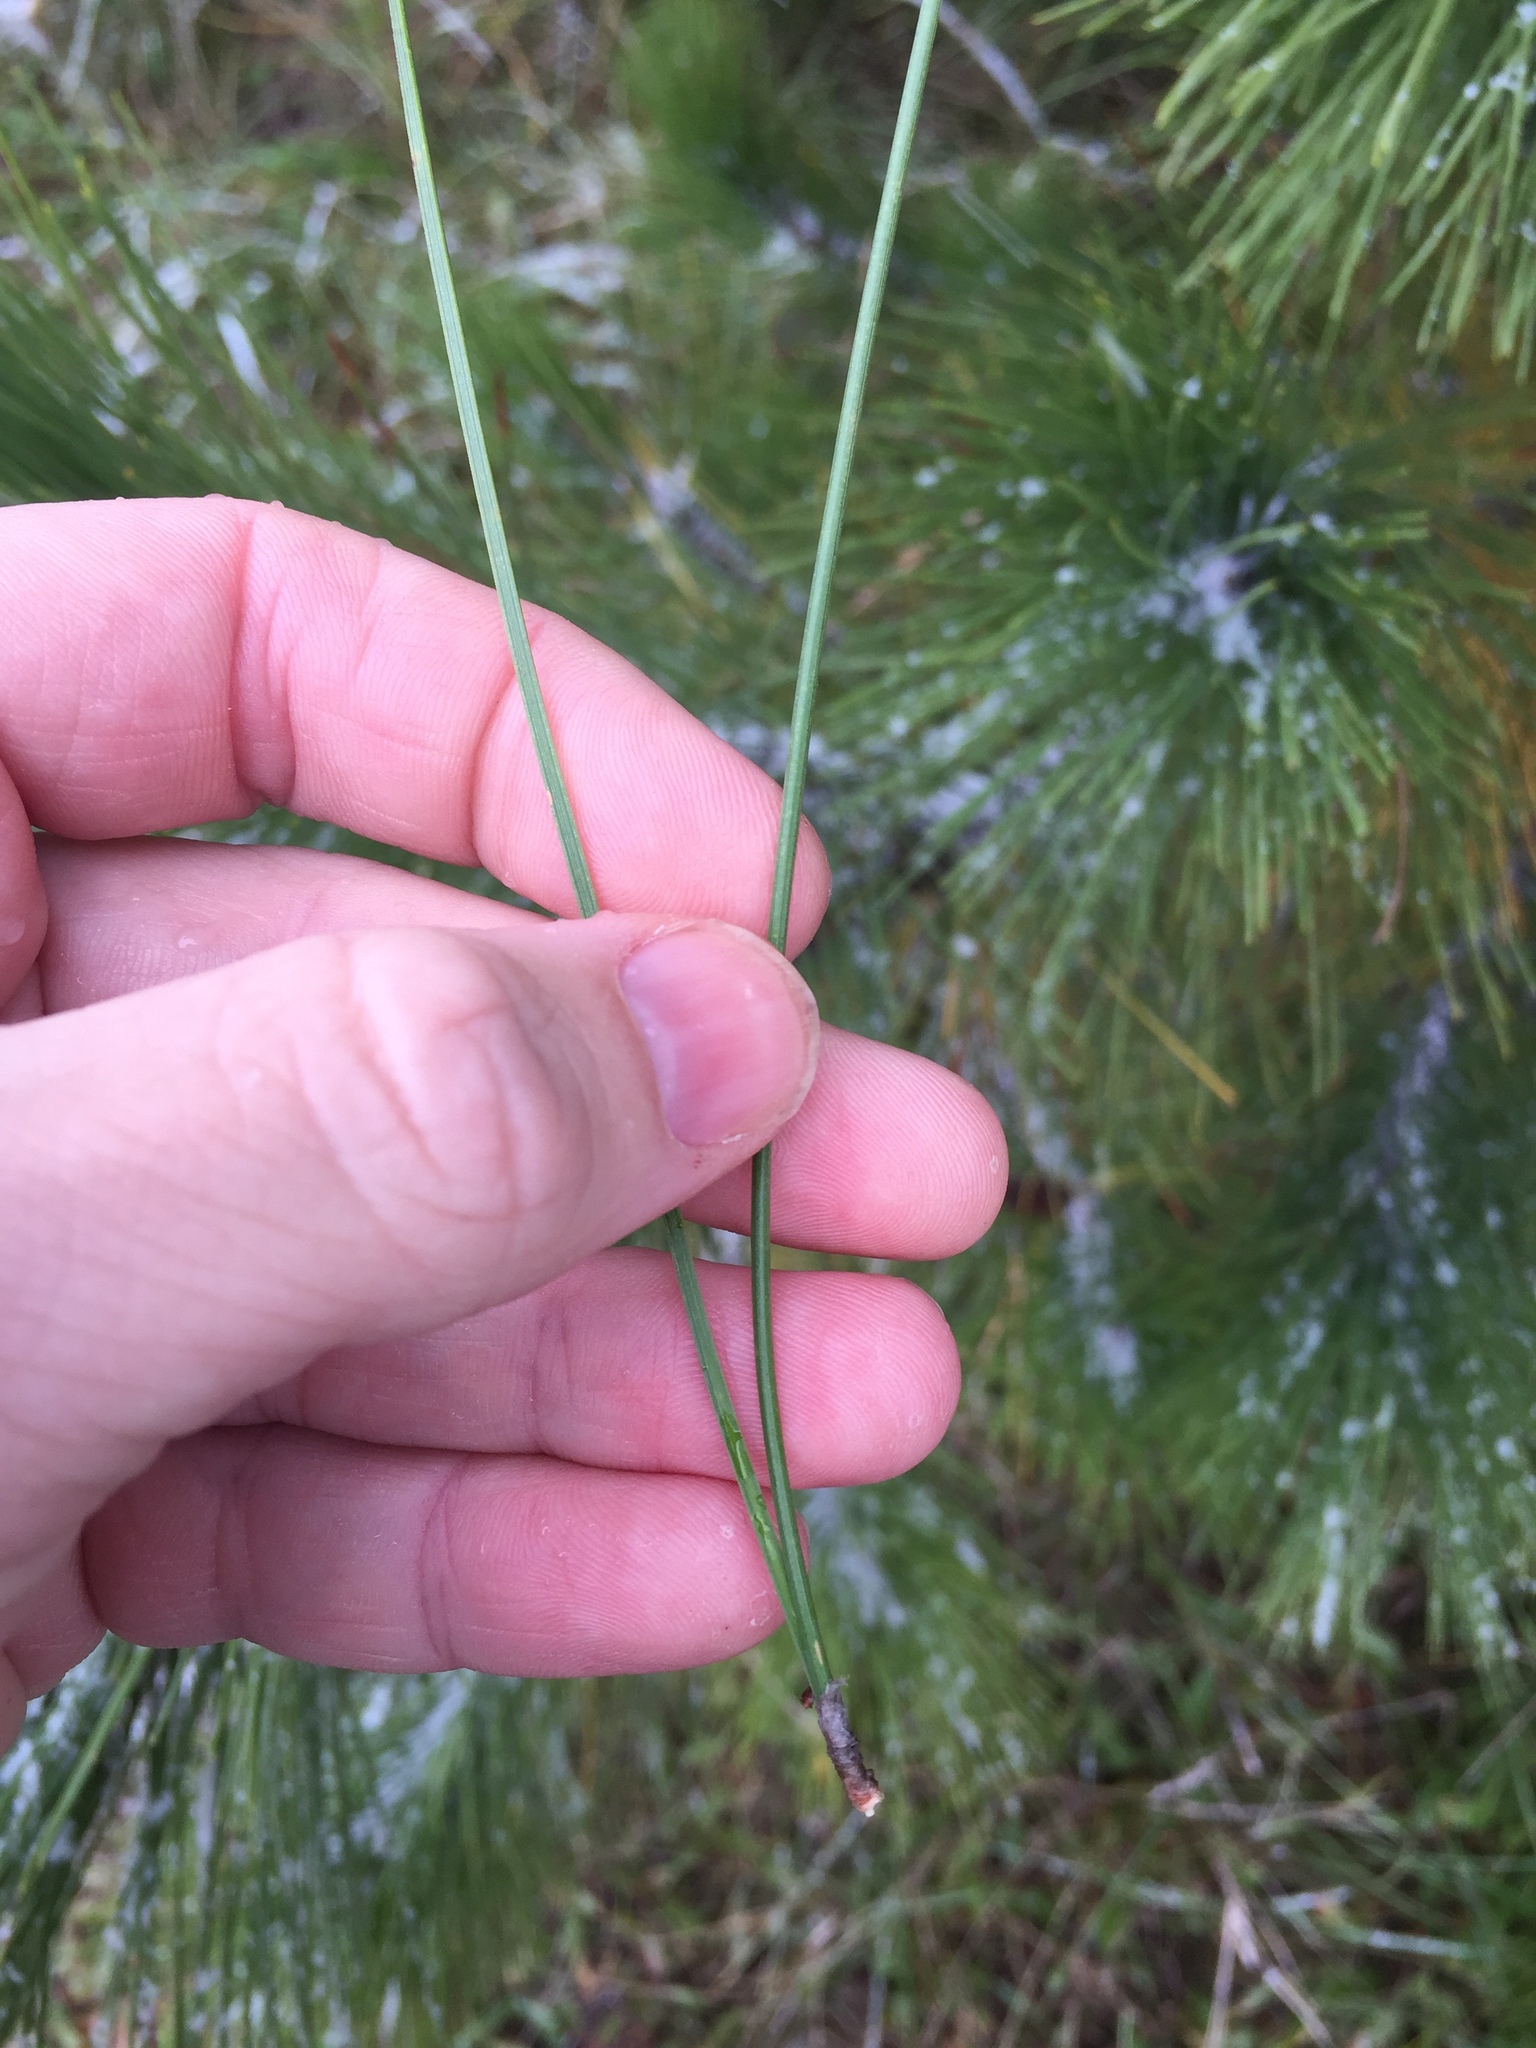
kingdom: Plantae
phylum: Tracheophyta
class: Pinopsida
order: Pinales
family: Pinaceae
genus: Pinus
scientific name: Pinus resinosa
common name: Norway pine
